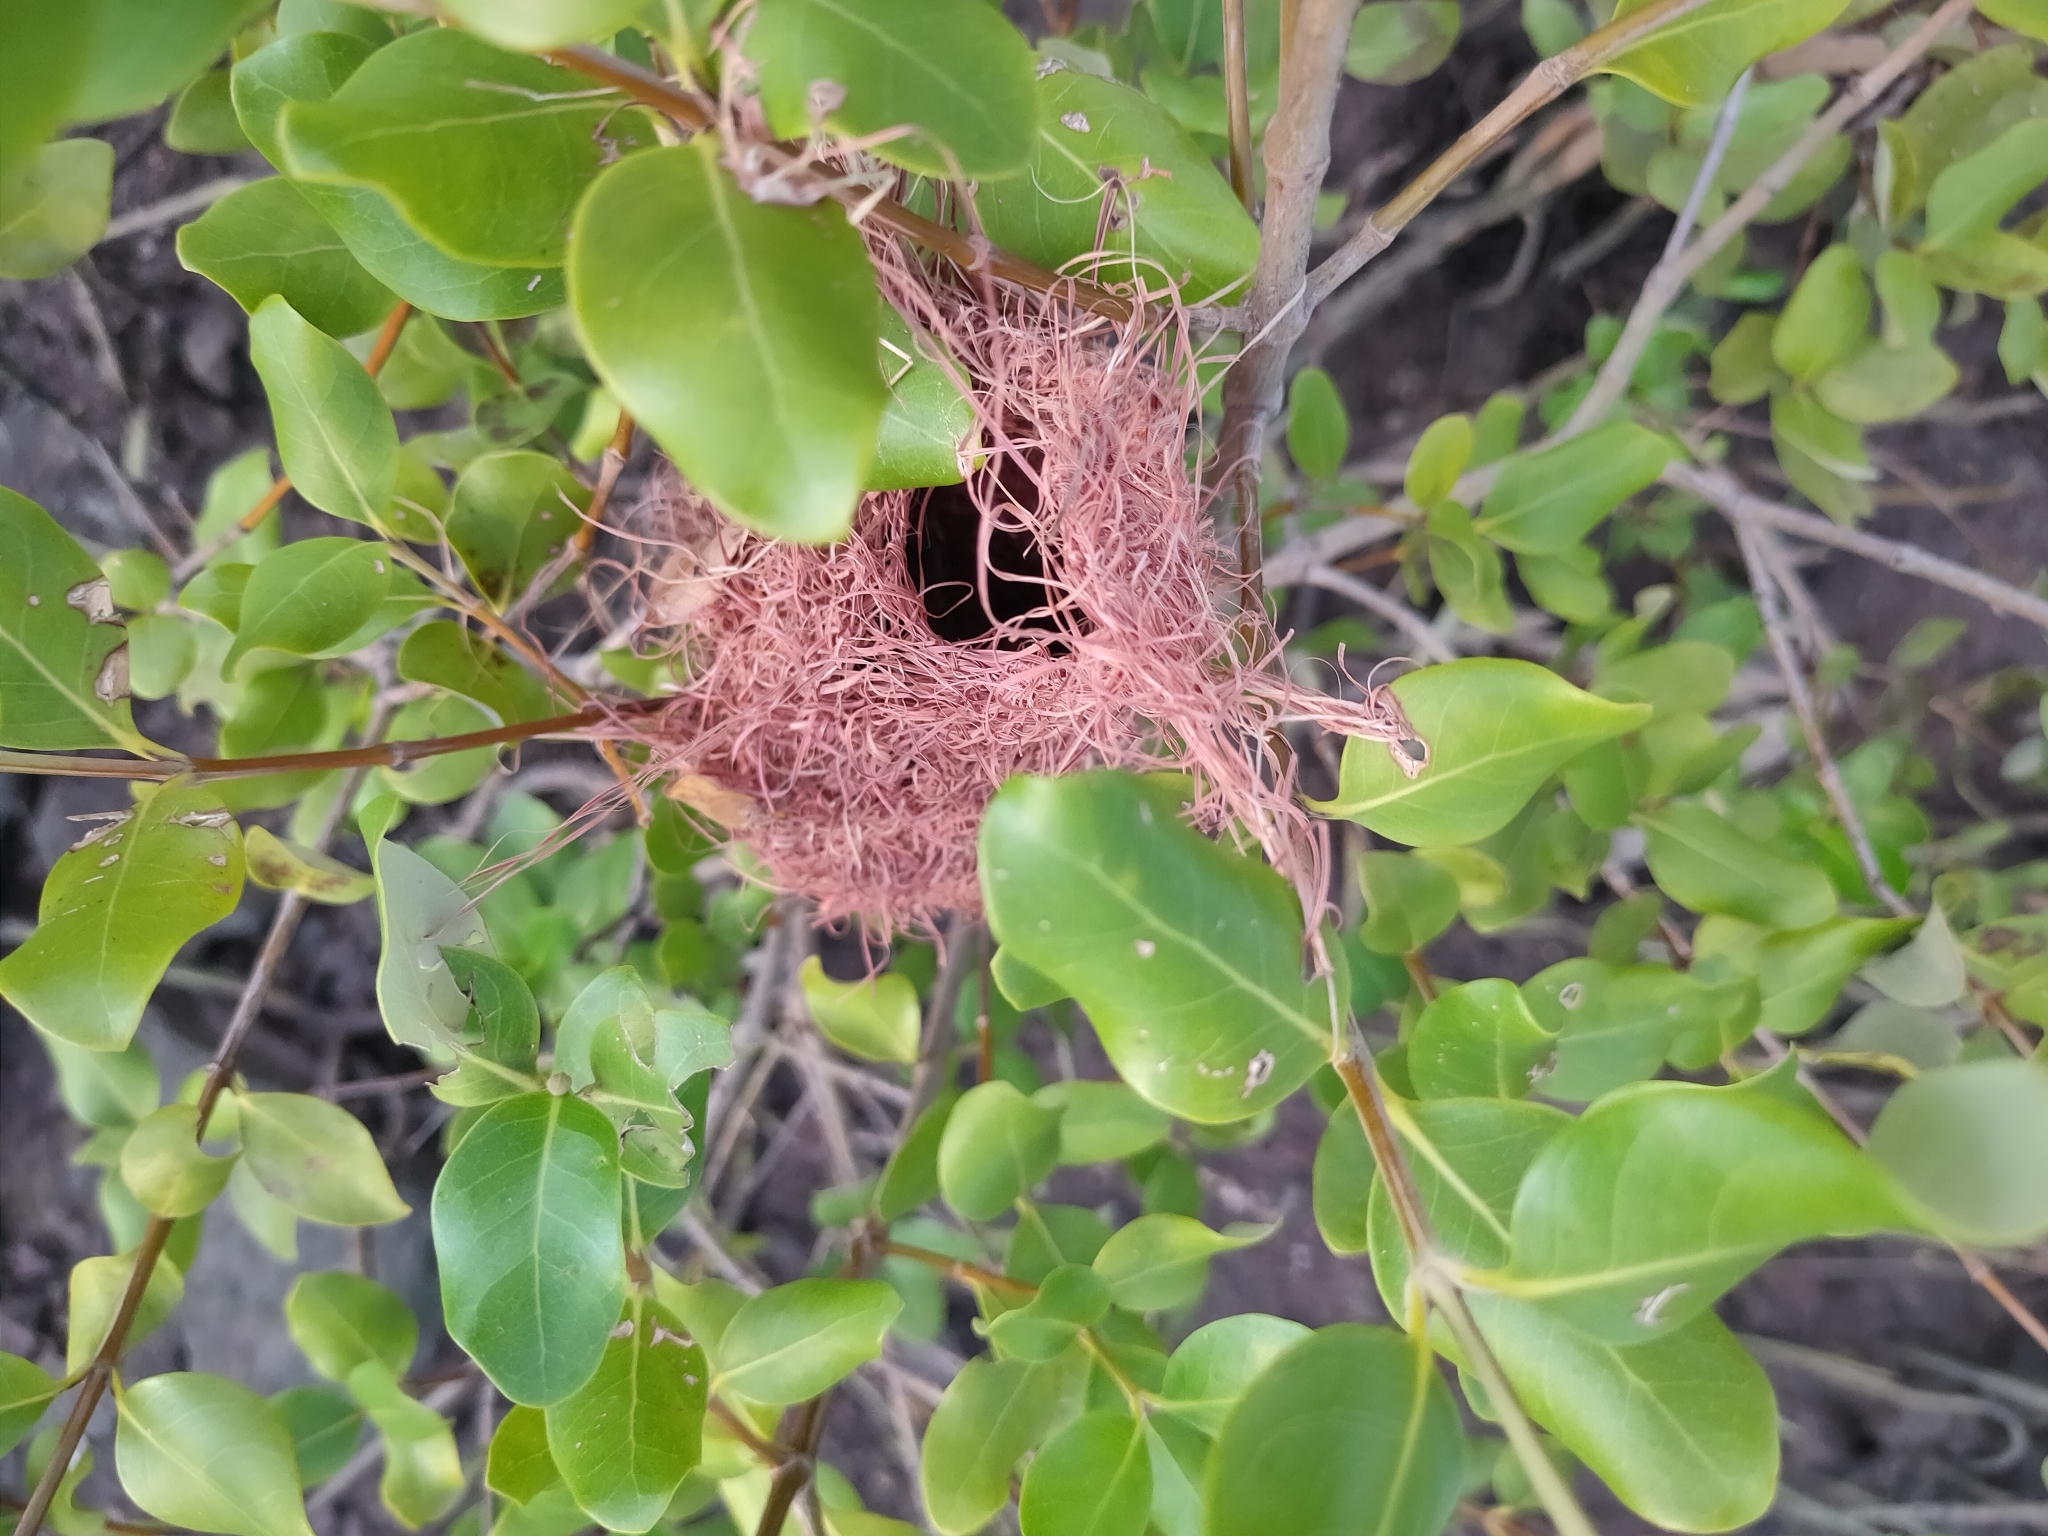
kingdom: Animalia
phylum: Chordata
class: Aves
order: Passeriformes
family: Cisticolidae
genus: Prinia
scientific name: Prinia inornata
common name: Plain prinia
